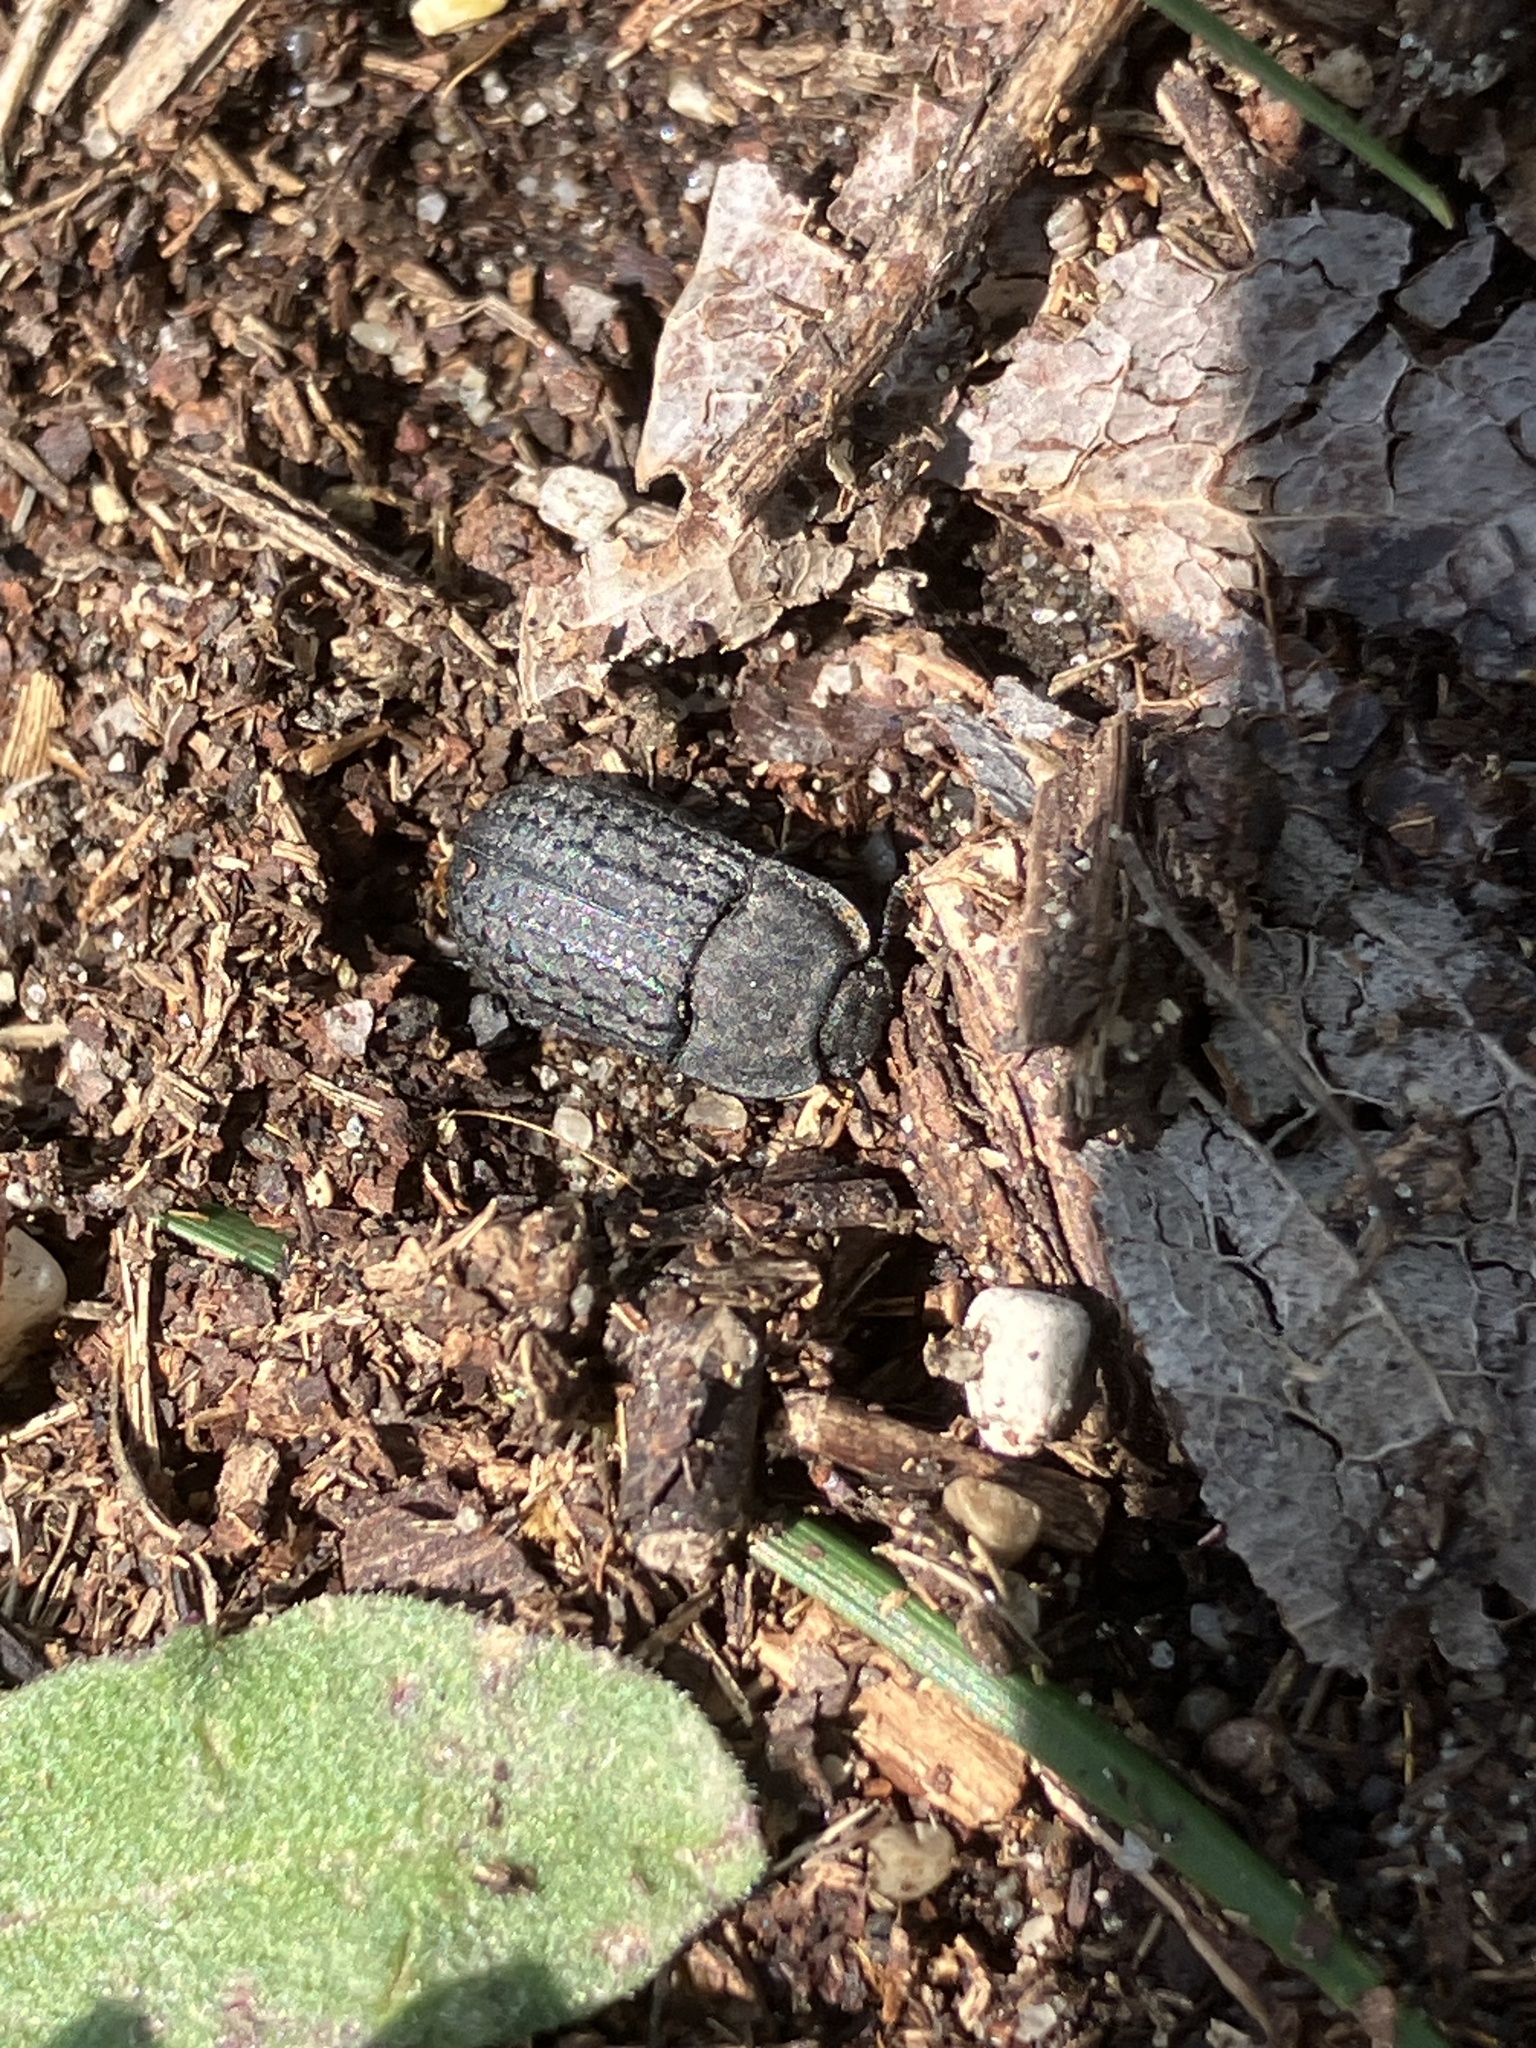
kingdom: Animalia
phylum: Arthropoda
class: Insecta
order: Coleoptera
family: Tenebrionidae
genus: Opatrum
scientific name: Opatrum sabulosum
